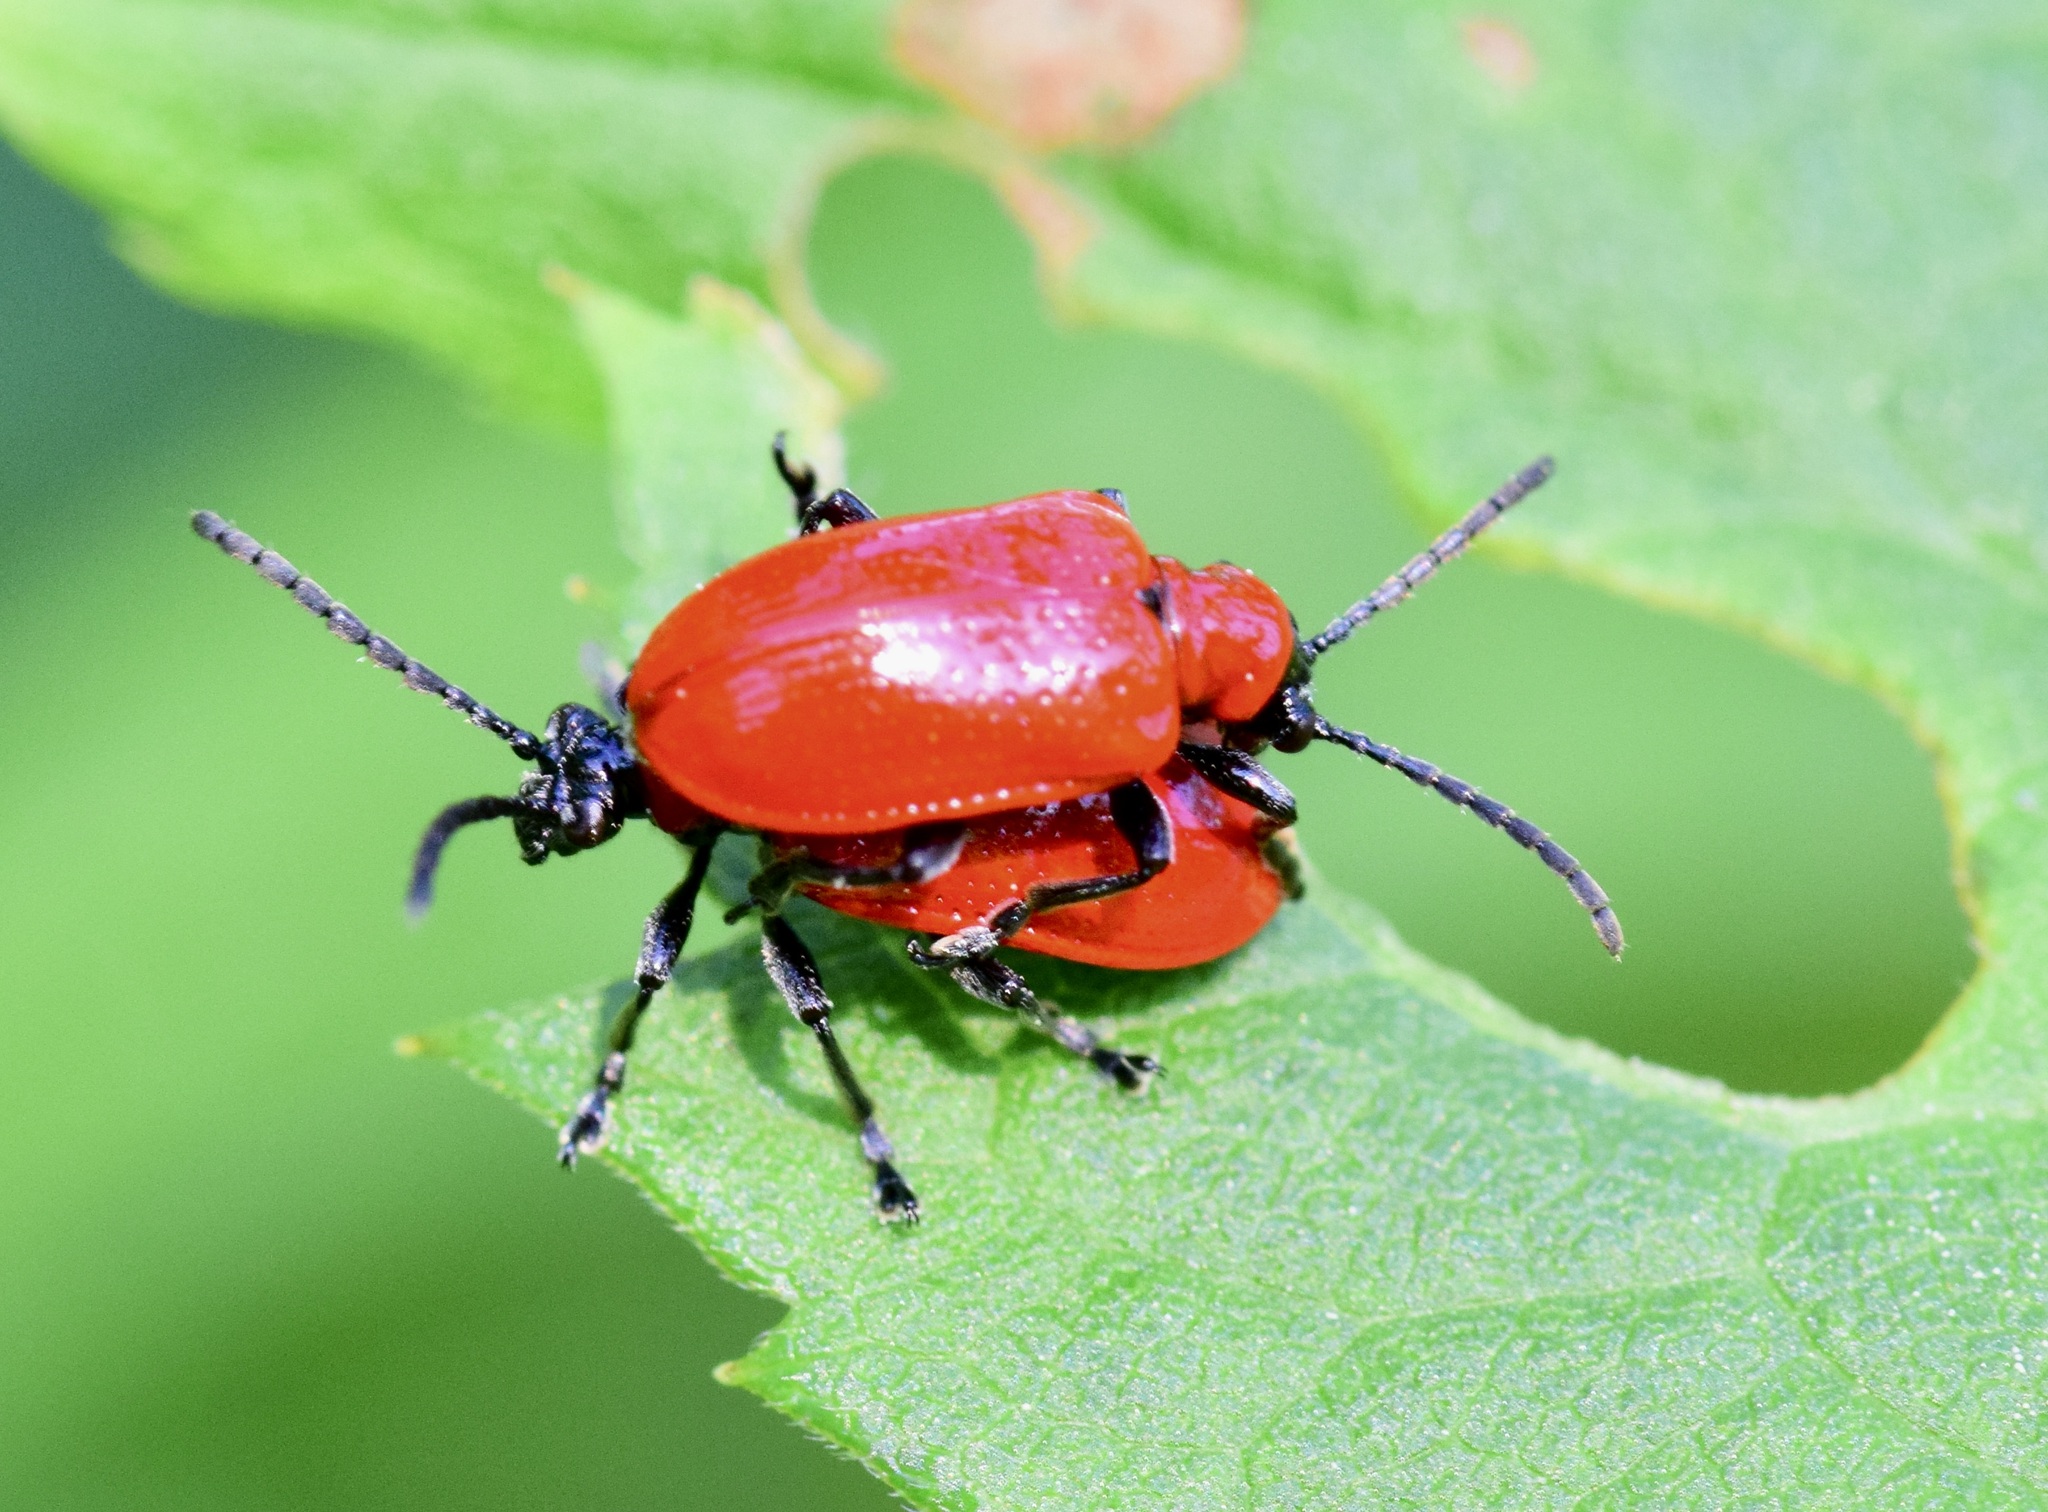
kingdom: Animalia
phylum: Arthropoda
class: Insecta
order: Coleoptera
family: Chrysomelidae
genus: Lilioceris
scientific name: Lilioceris lilii
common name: Lily beetle
